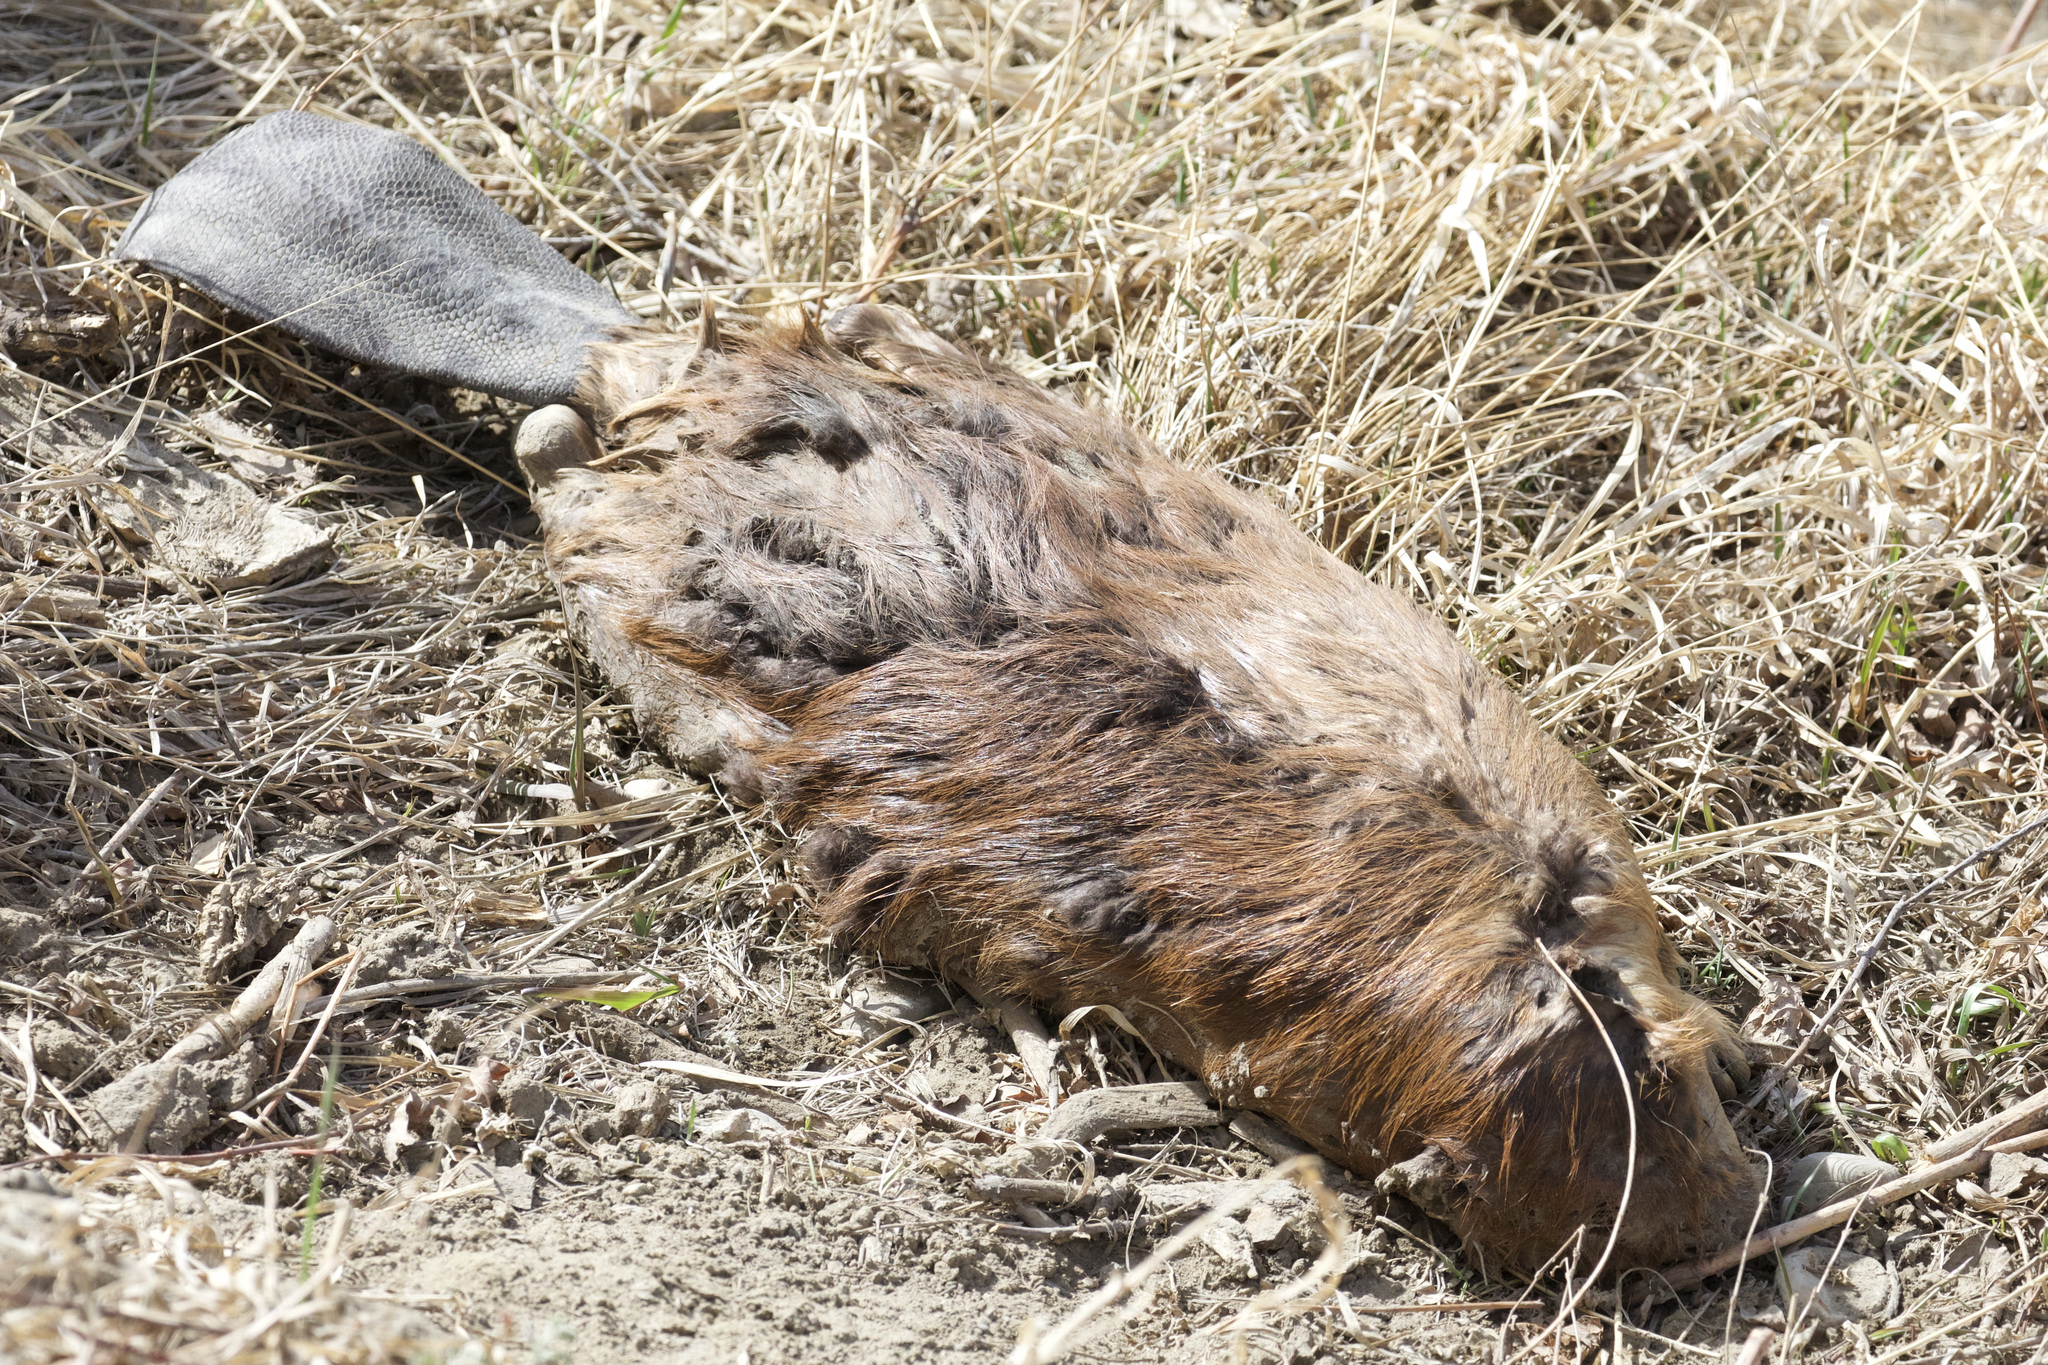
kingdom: Animalia
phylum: Chordata
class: Mammalia
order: Rodentia
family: Castoridae
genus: Castor
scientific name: Castor canadensis
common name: American beaver
